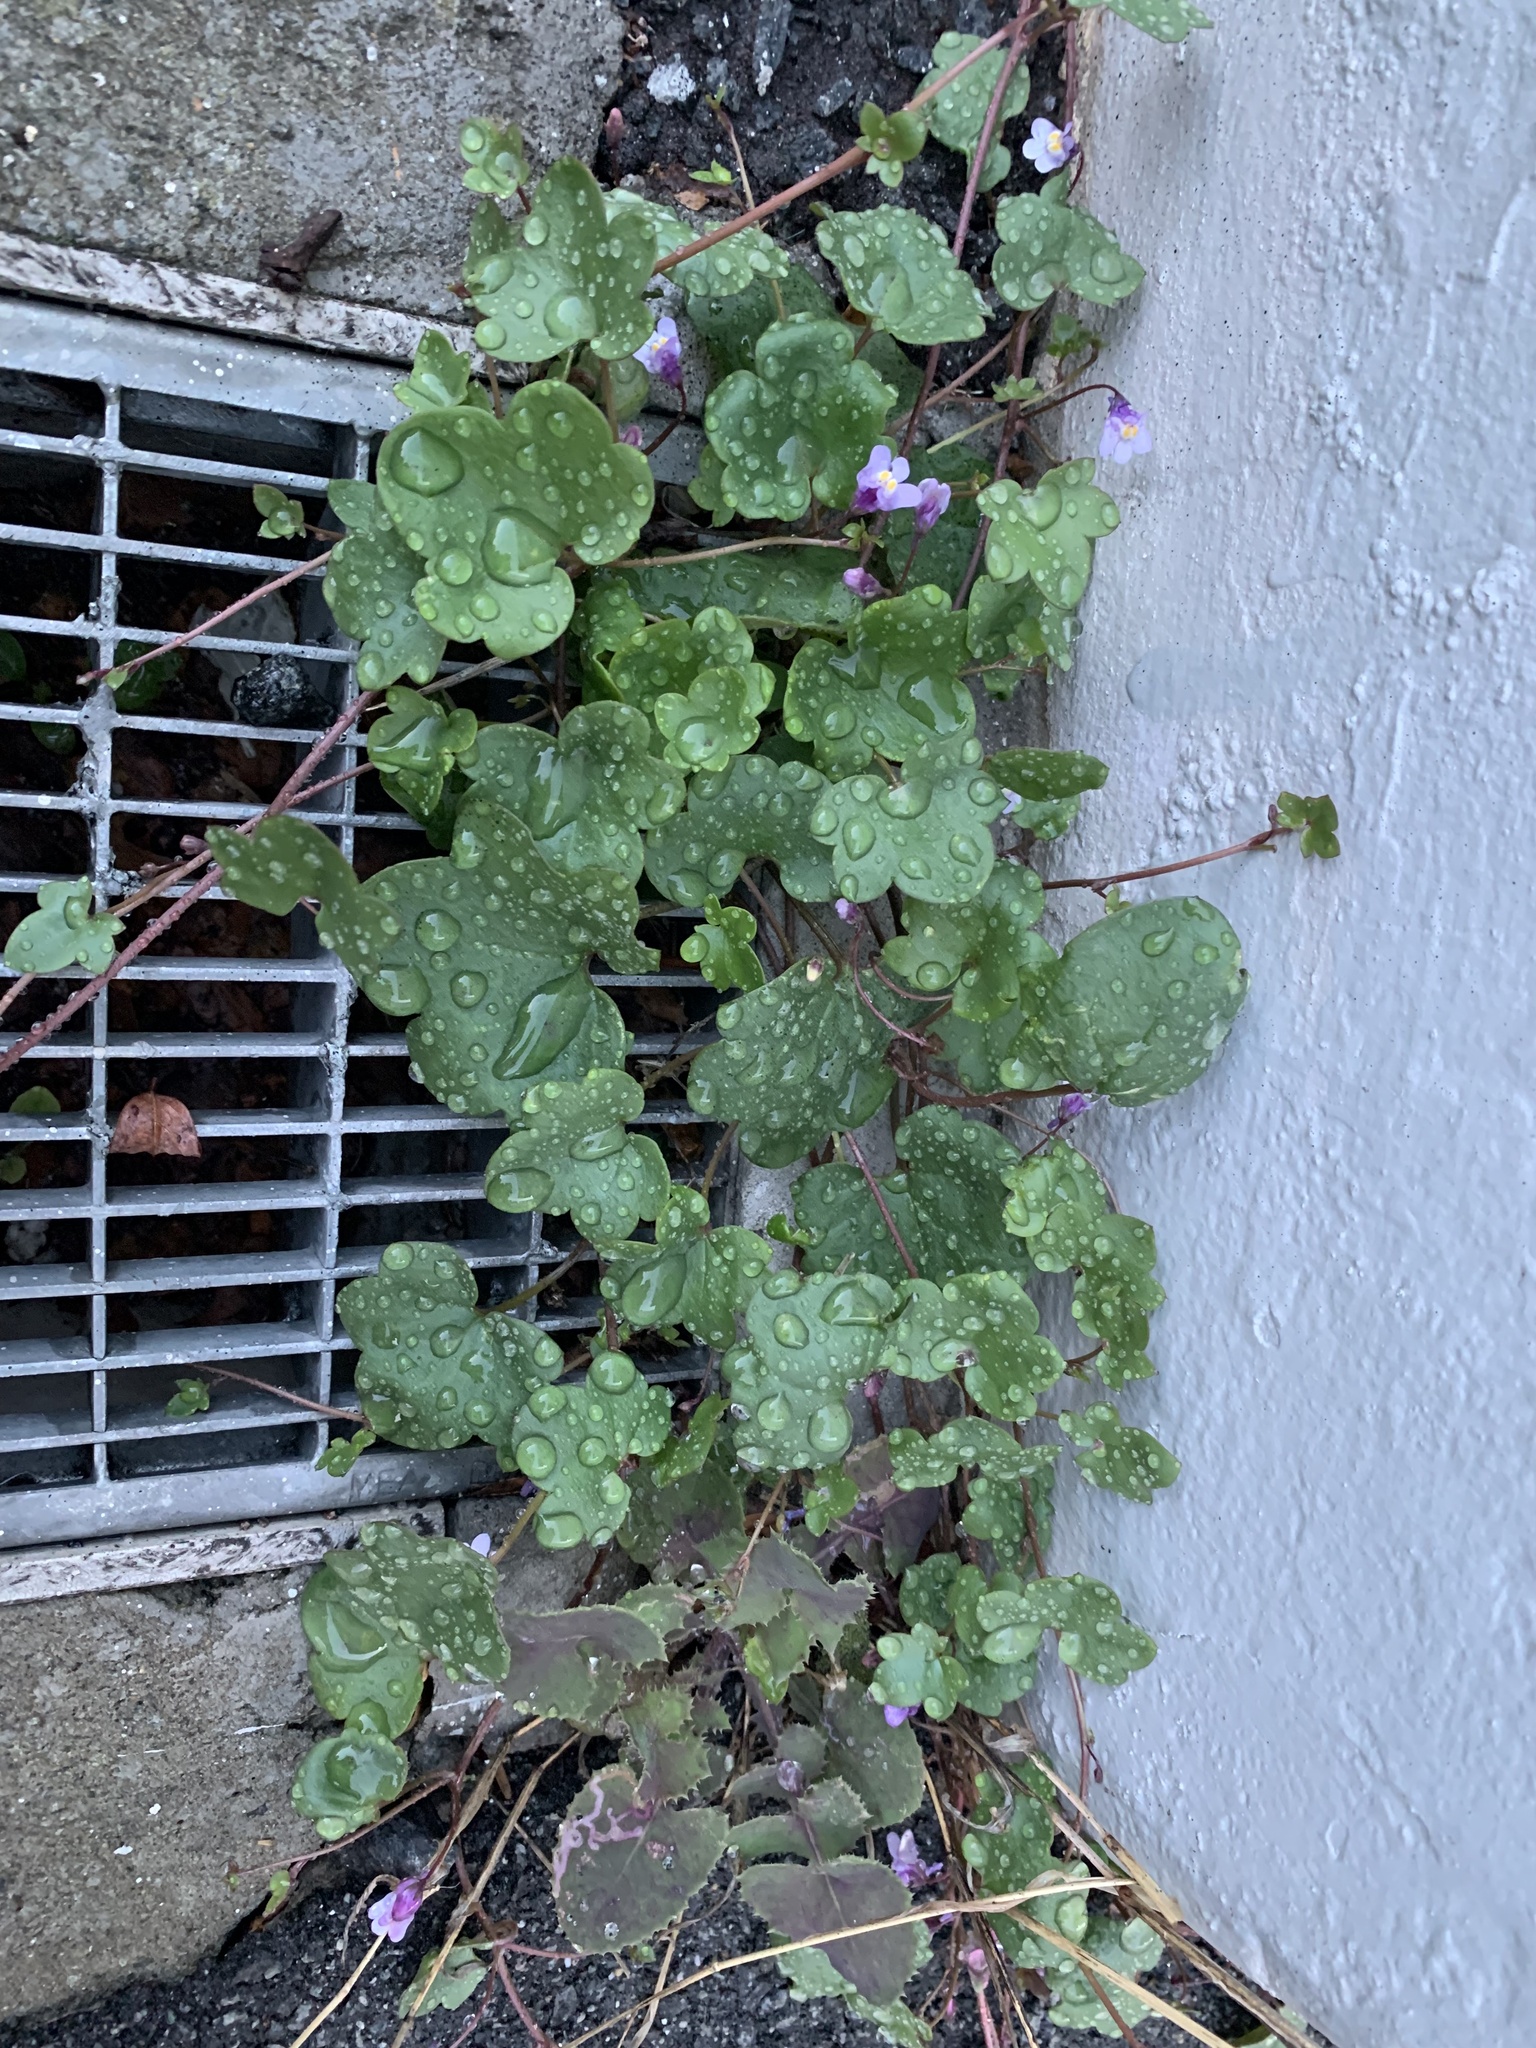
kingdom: Plantae
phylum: Tracheophyta
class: Magnoliopsida
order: Lamiales
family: Plantaginaceae
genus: Cymbalaria
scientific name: Cymbalaria muralis
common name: Ivy-leaved toadflax
